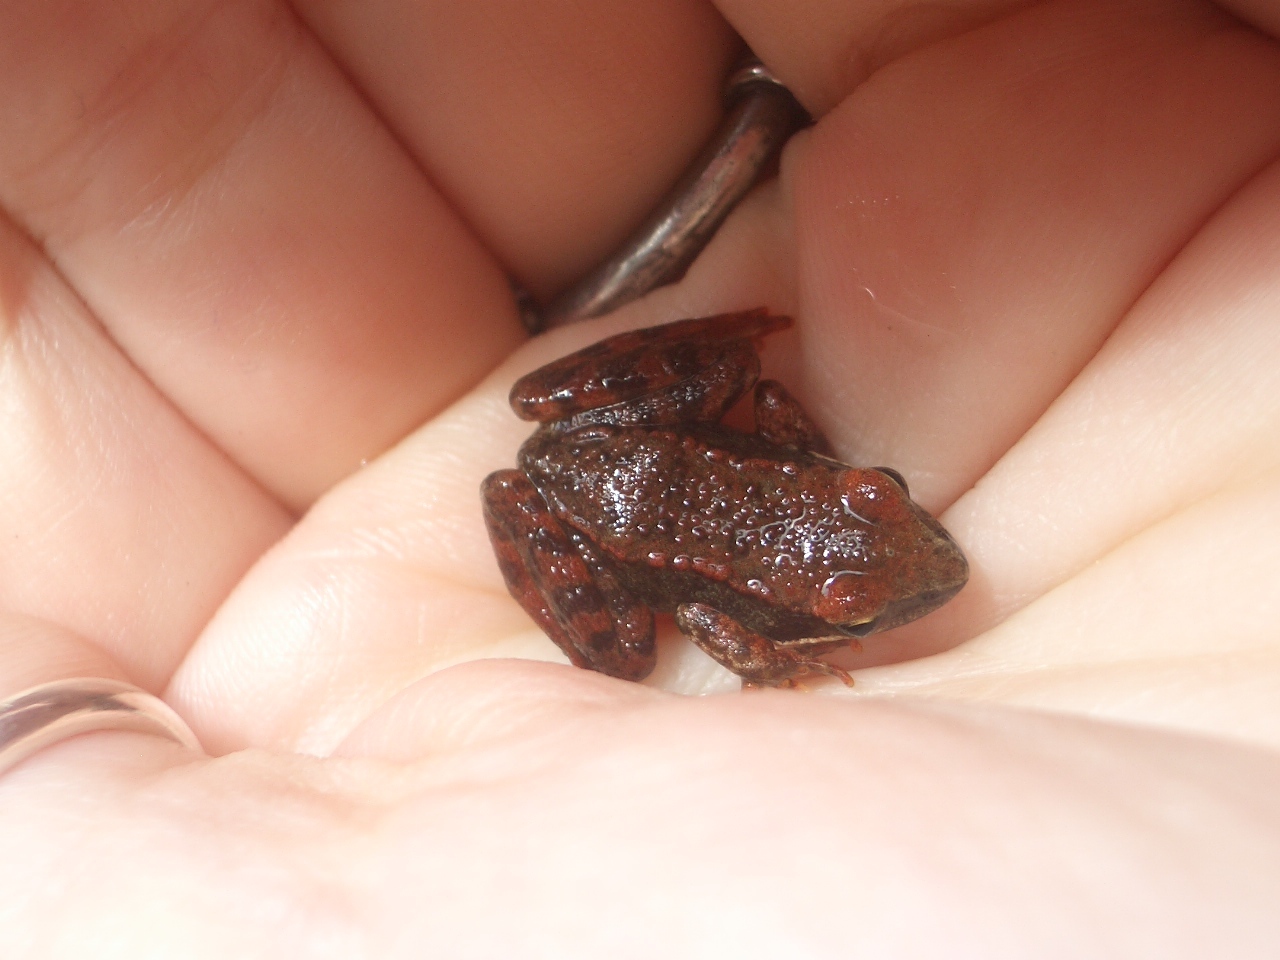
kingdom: Animalia
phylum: Chordata
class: Amphibia
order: Anura
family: Ranidae
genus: Rana
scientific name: Rana iberica
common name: Iberian frog
